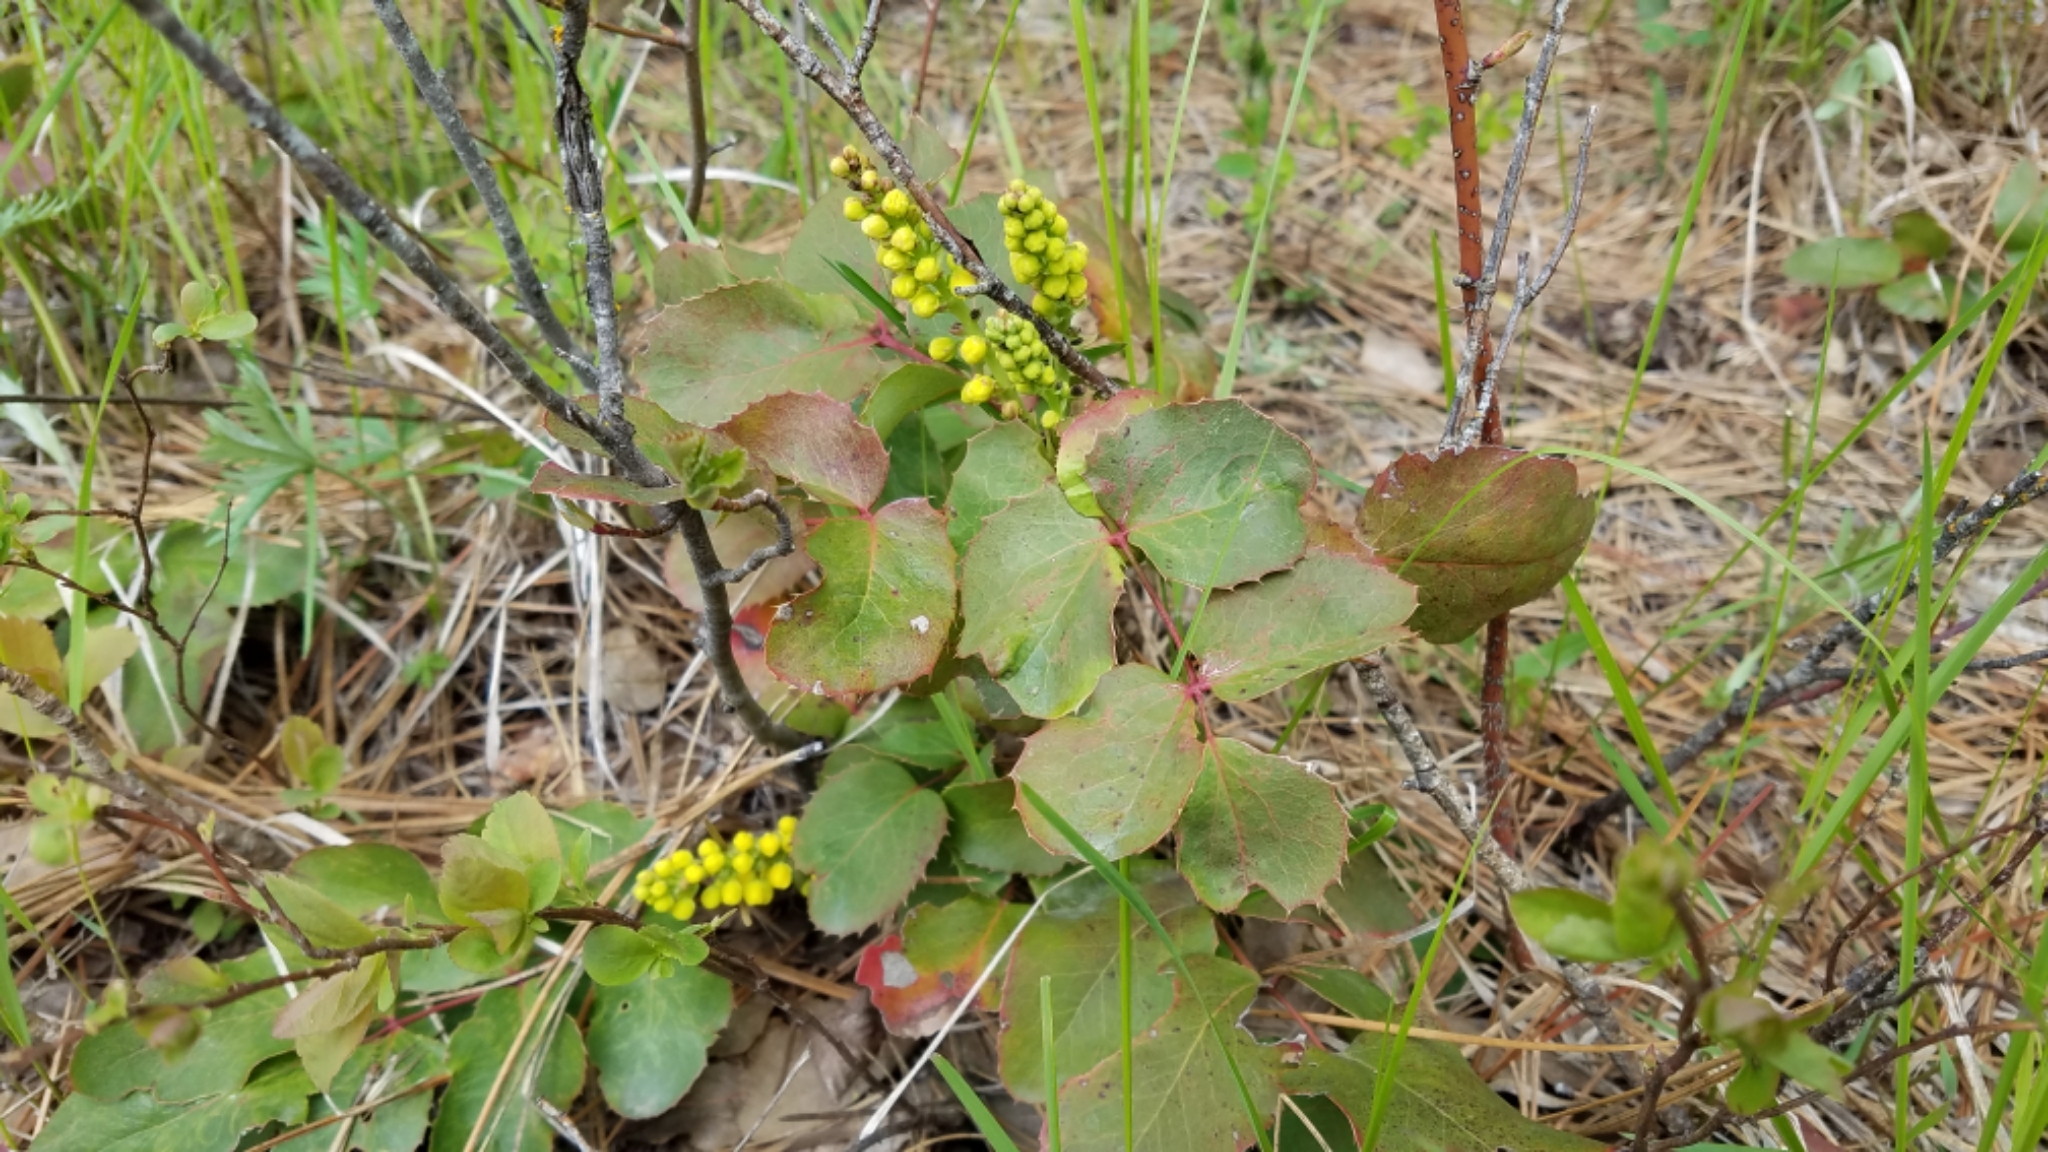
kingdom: Plantae
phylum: Tracheophyta
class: Magnoliopsida
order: Ranunculales
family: Berberidaceae
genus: Mahonia
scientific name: Mahonia repens
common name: Creeping oregon-grape
